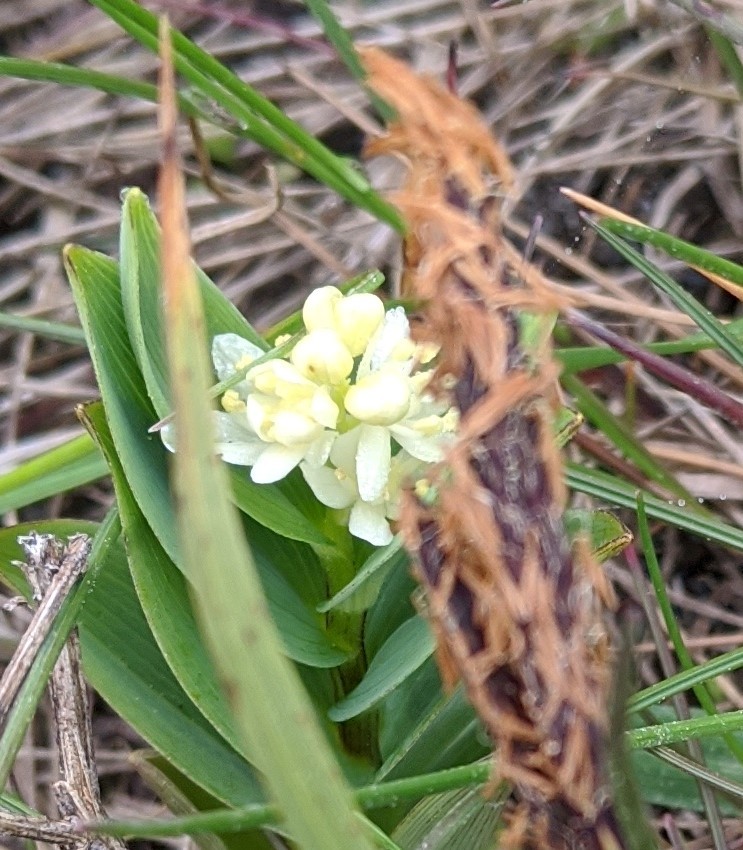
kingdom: Plantae
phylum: Tracheophyta
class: Liliopsida
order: Asparagales
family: Asparagaceae
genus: Maianthemum
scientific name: Maianthemum stellatum
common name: Little false solomon's seal
